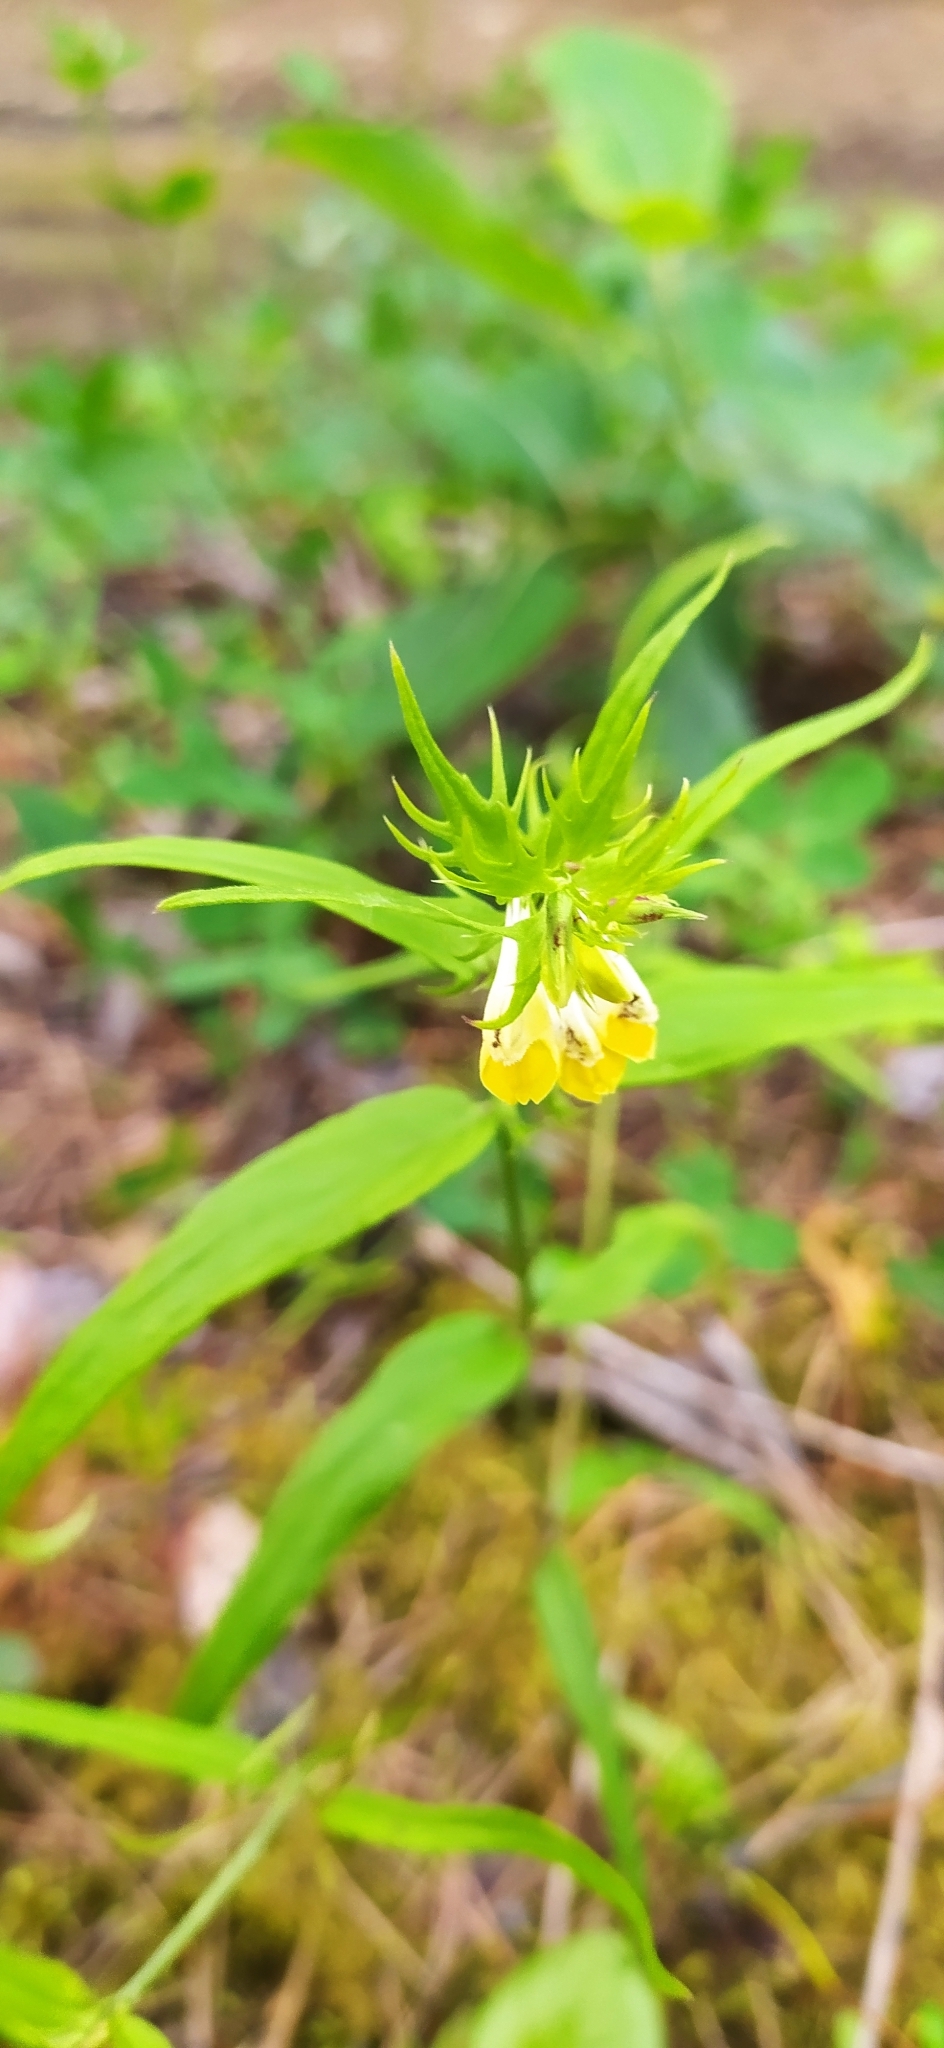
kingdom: Plantae
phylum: Tracheophyta
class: Magnoliopsida
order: Lamiales
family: Orobanchaceae
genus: Melampyrum
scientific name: Melampyrum pratense
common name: Common cow-wheat
